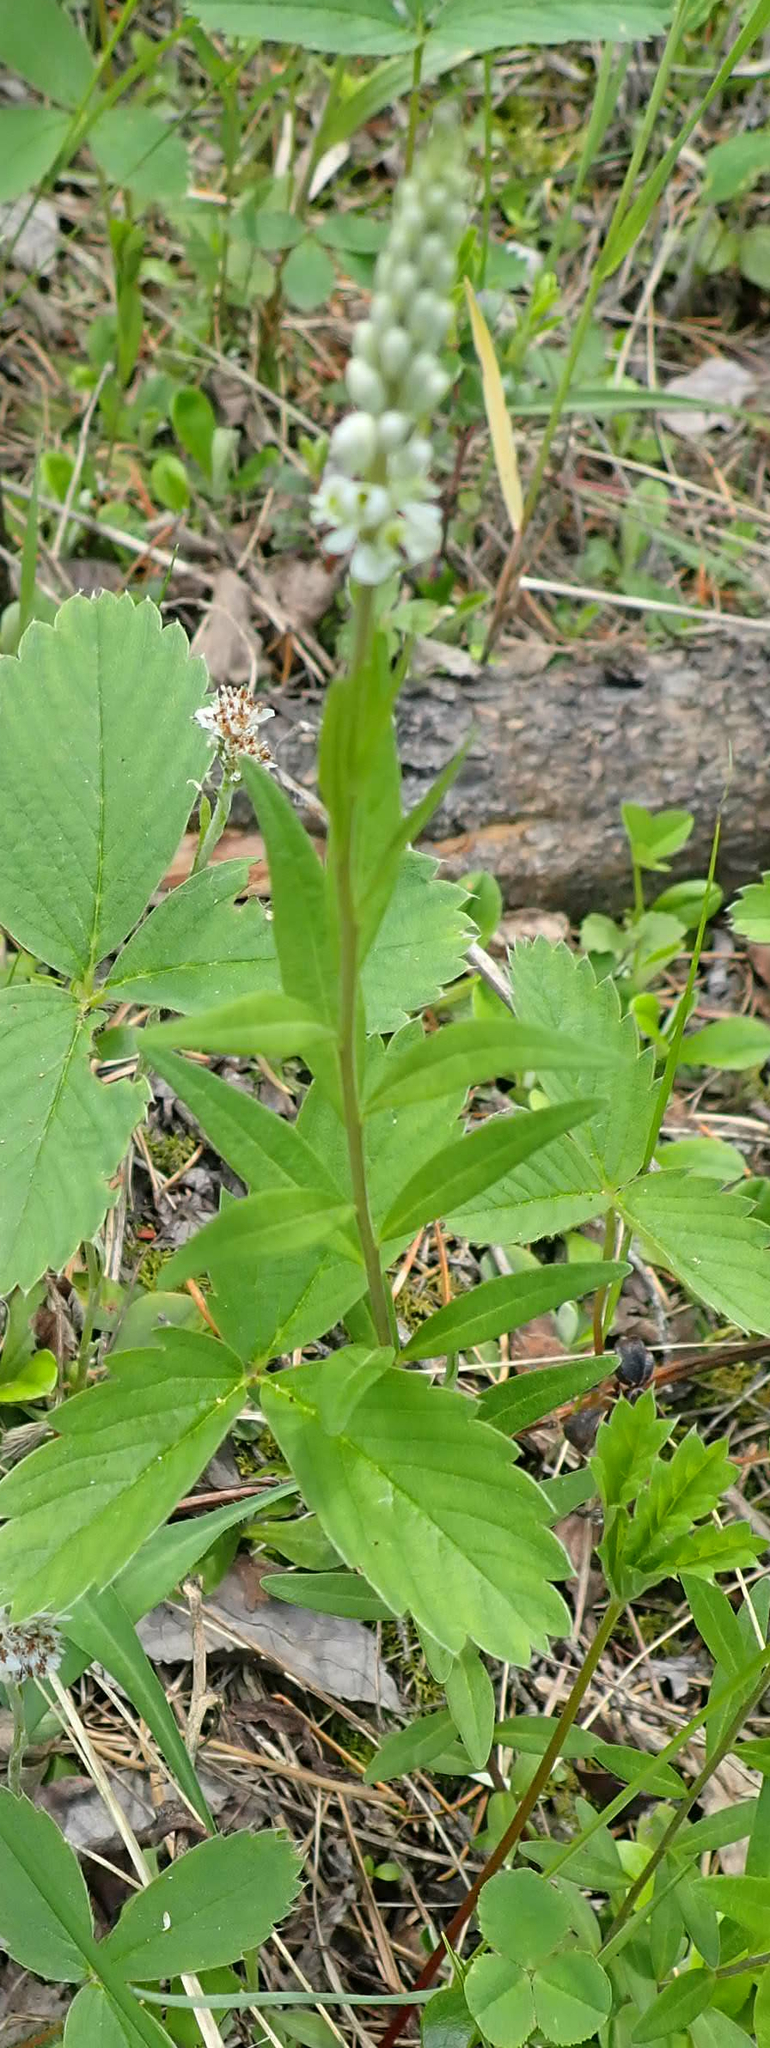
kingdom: Plantae
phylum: Tracheophyta
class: Magnoliopsida
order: Fabales
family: Polygalaceae
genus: Polygala
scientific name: Polygala senega
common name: Seneca snakeroot
